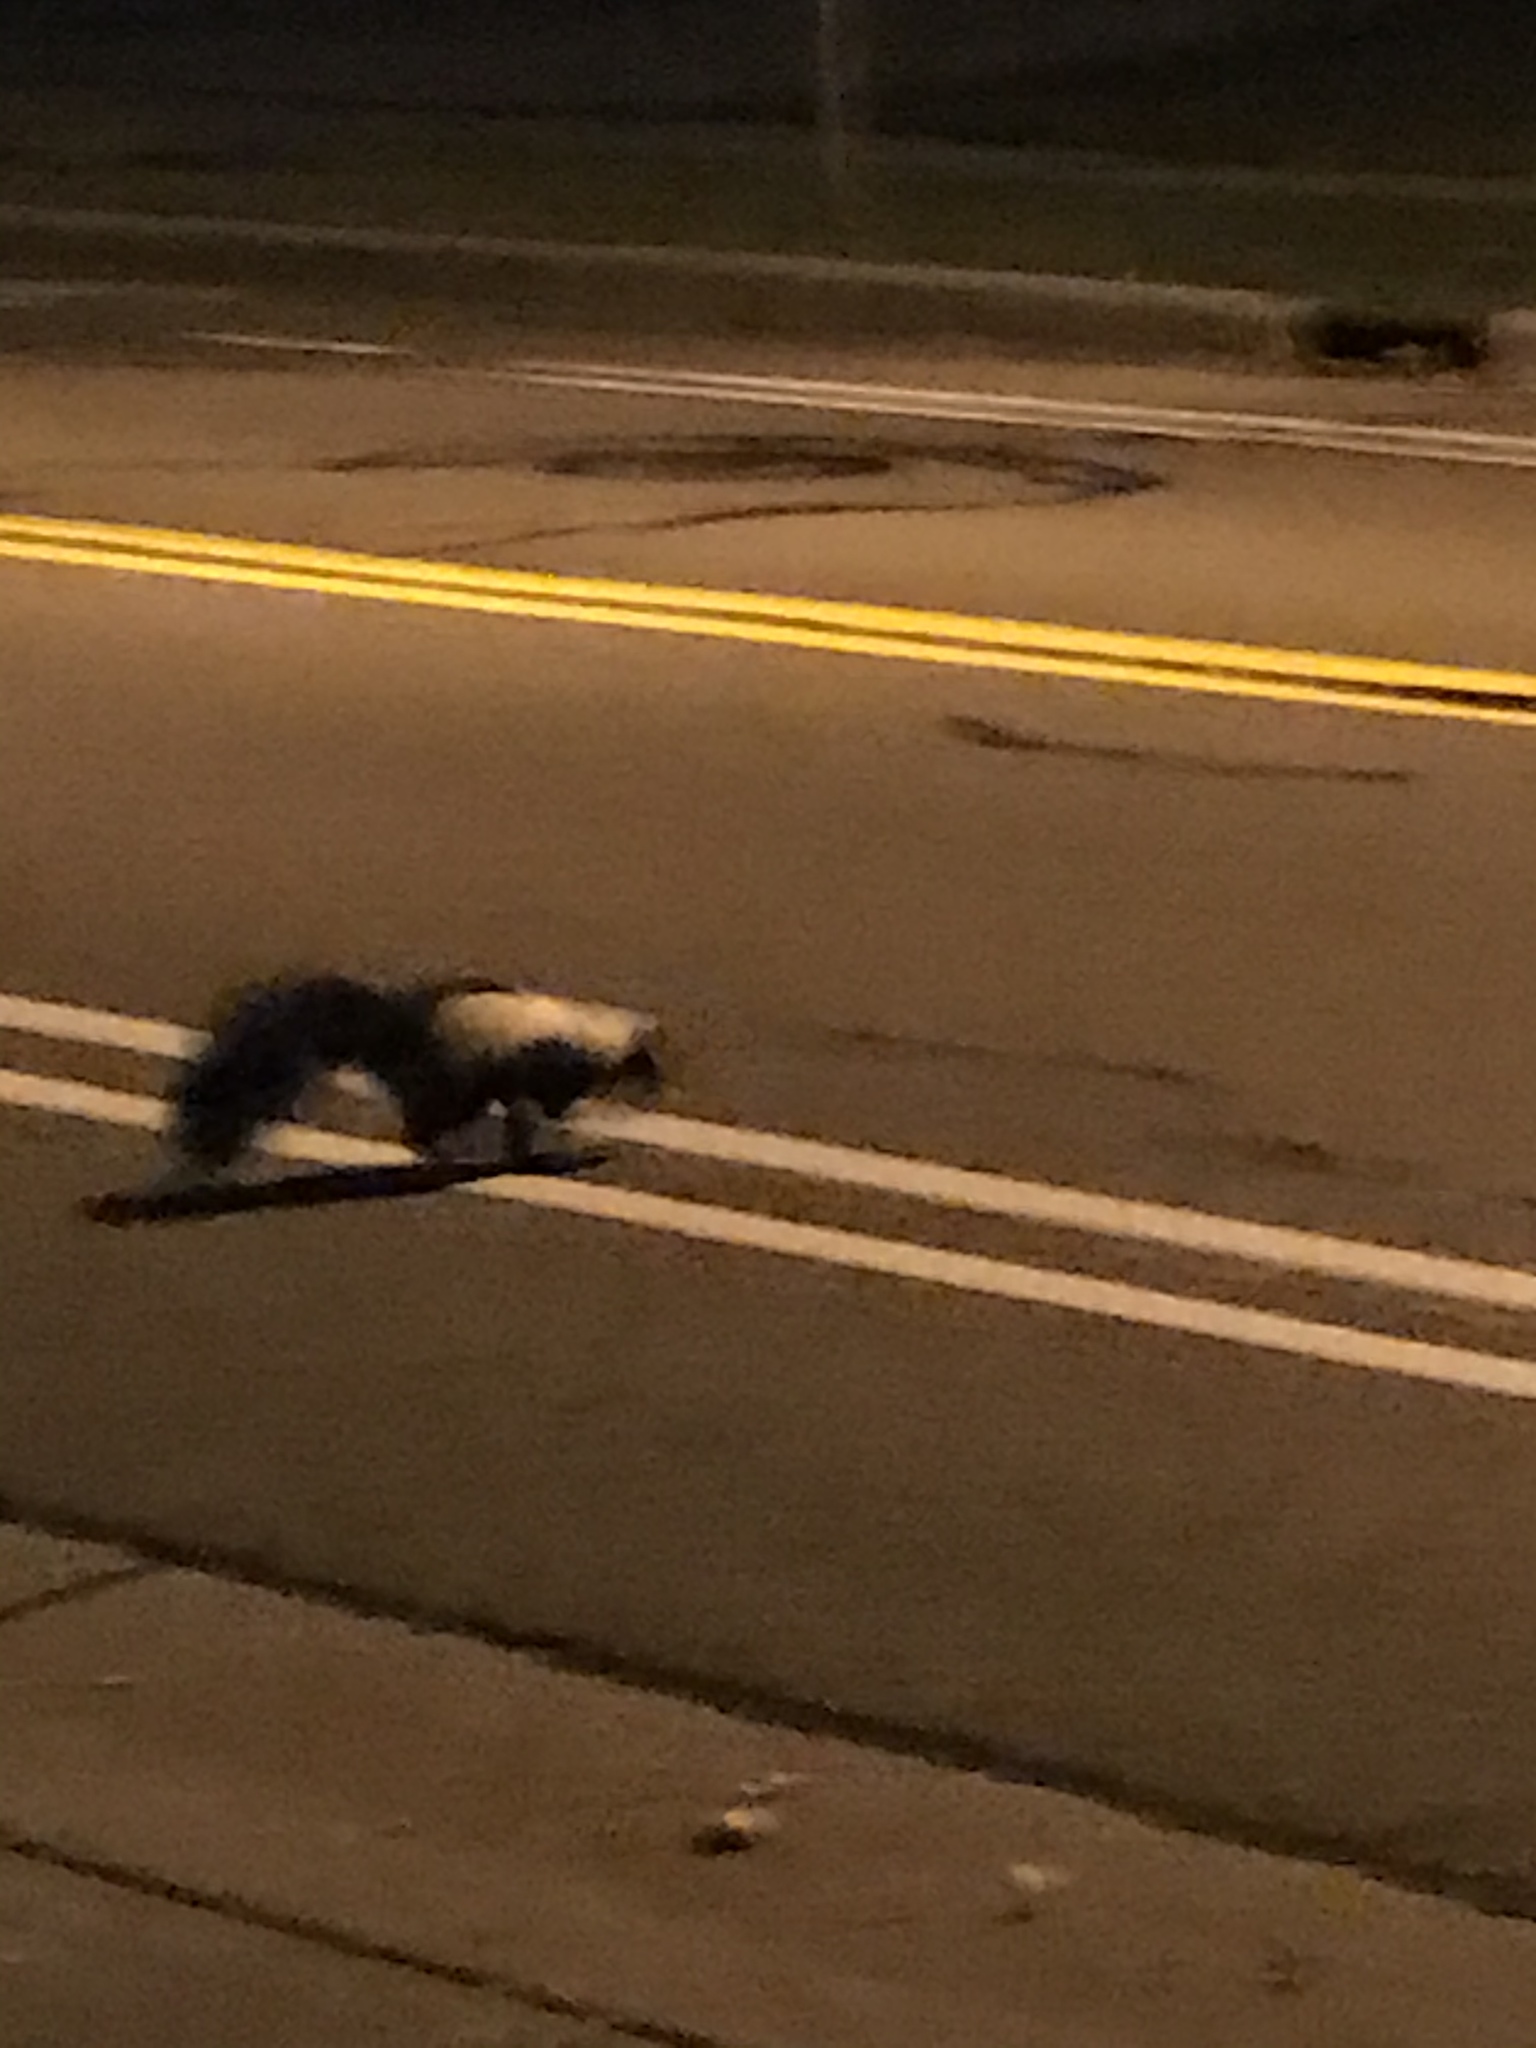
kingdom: Animalia
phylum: Chordata
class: Mammalia
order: Carnivora
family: Mephitidae
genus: Mephitis
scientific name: Mephitis mephitis
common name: Striped skunk
